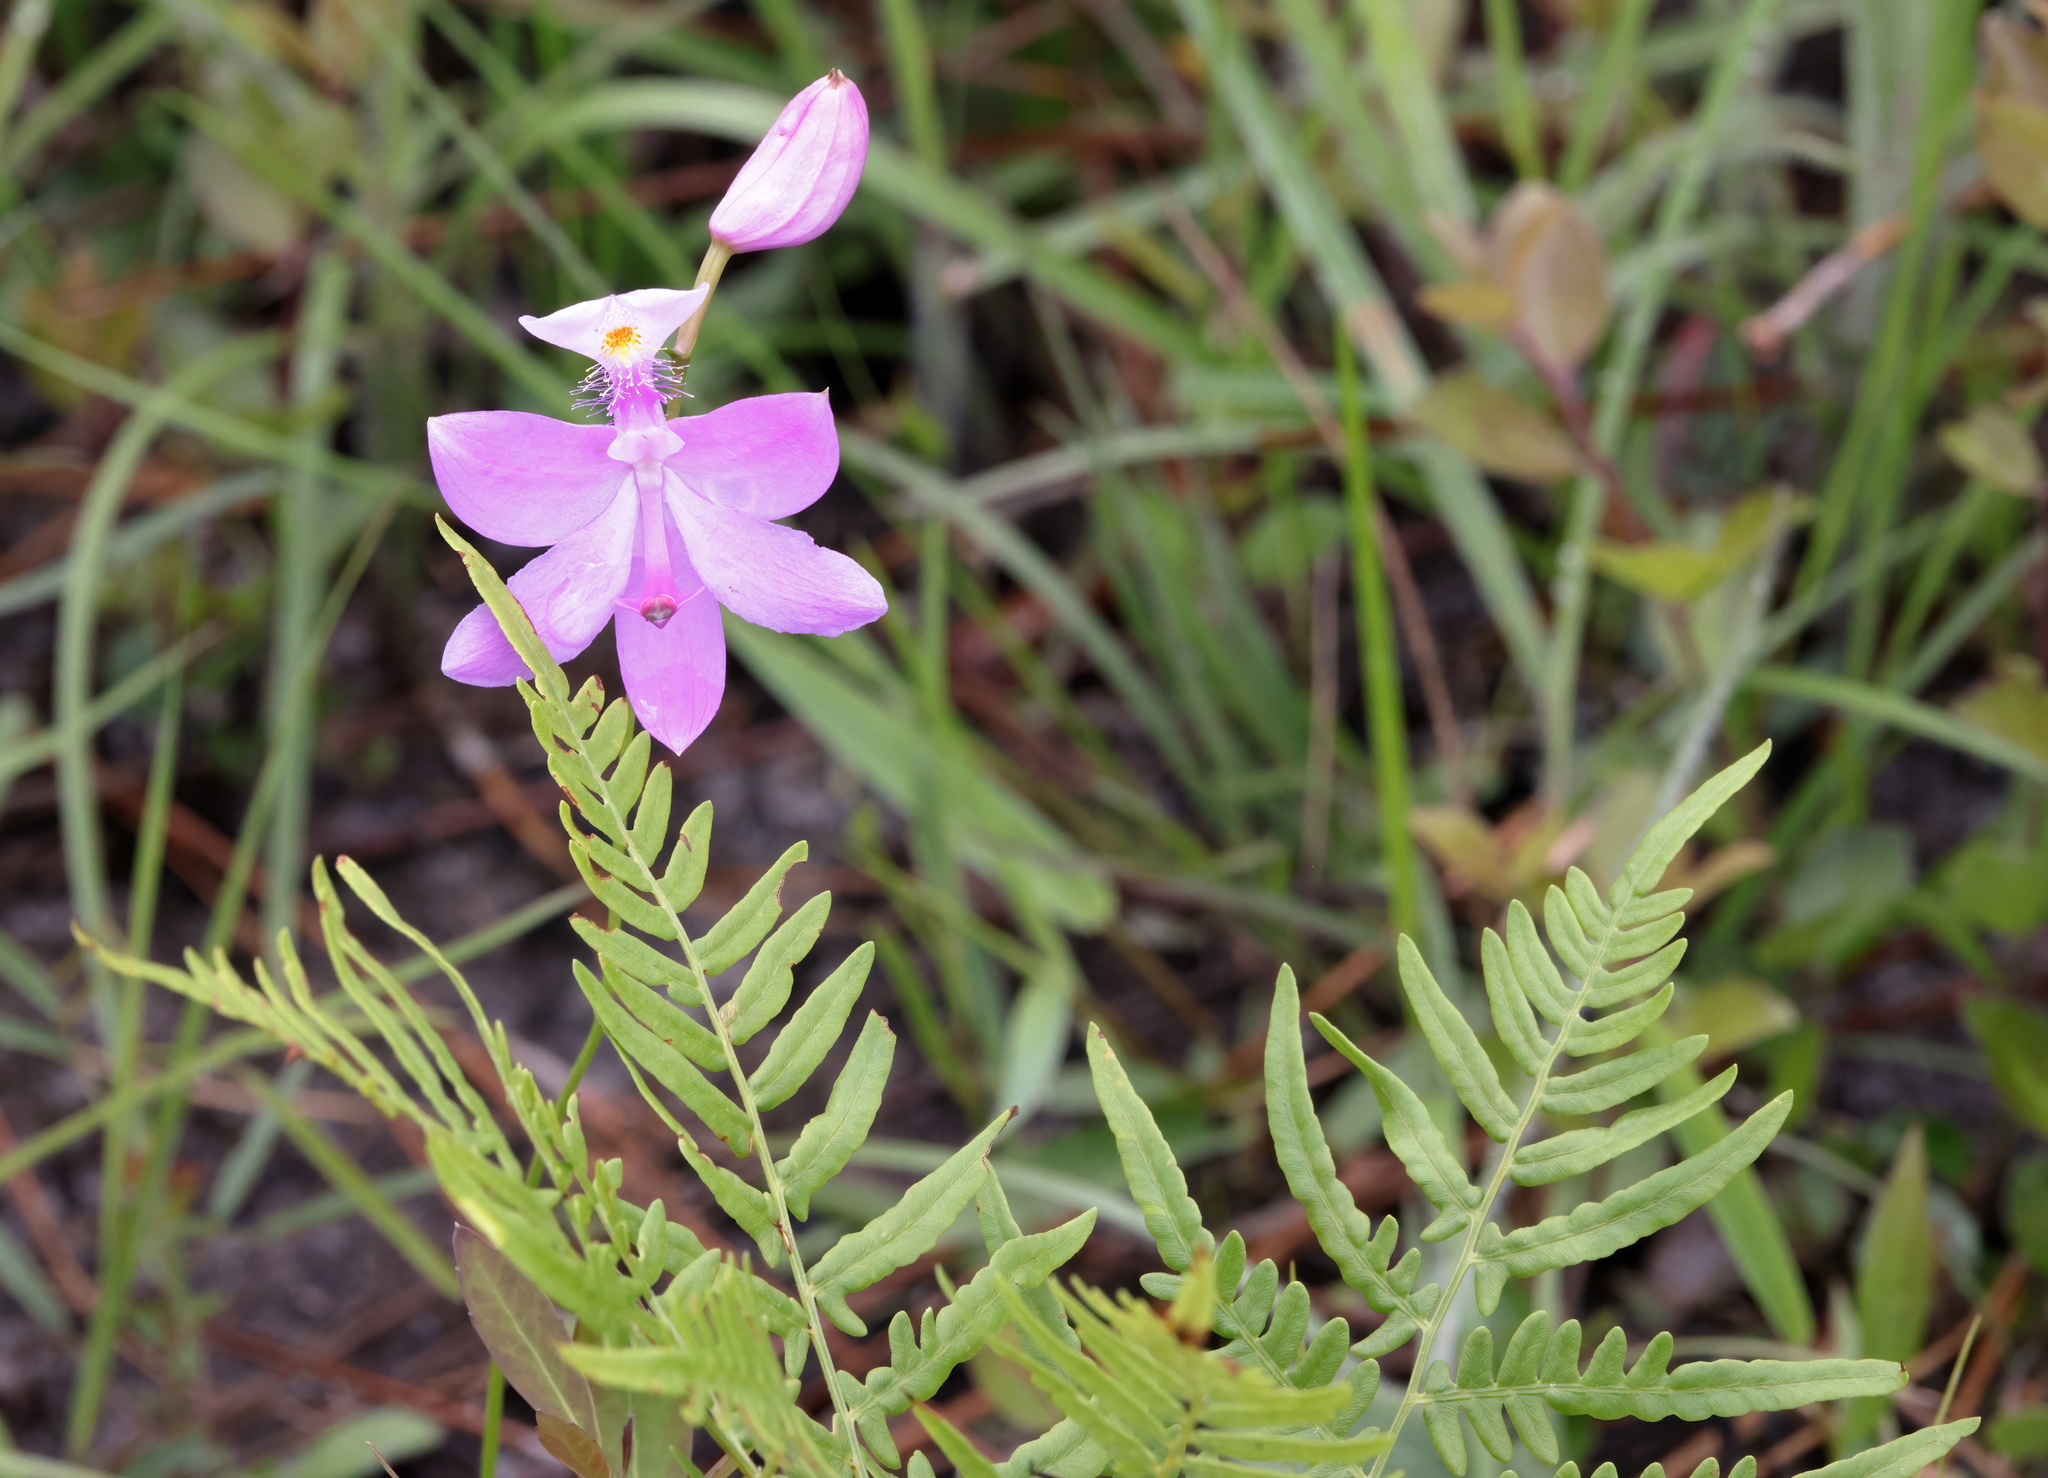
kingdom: Plantae
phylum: Tracheophyta
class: Liliopsida
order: Asparagales
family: Orchidaceae
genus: Calopogon
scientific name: Calopogon tuberosus
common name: Grass-pink
